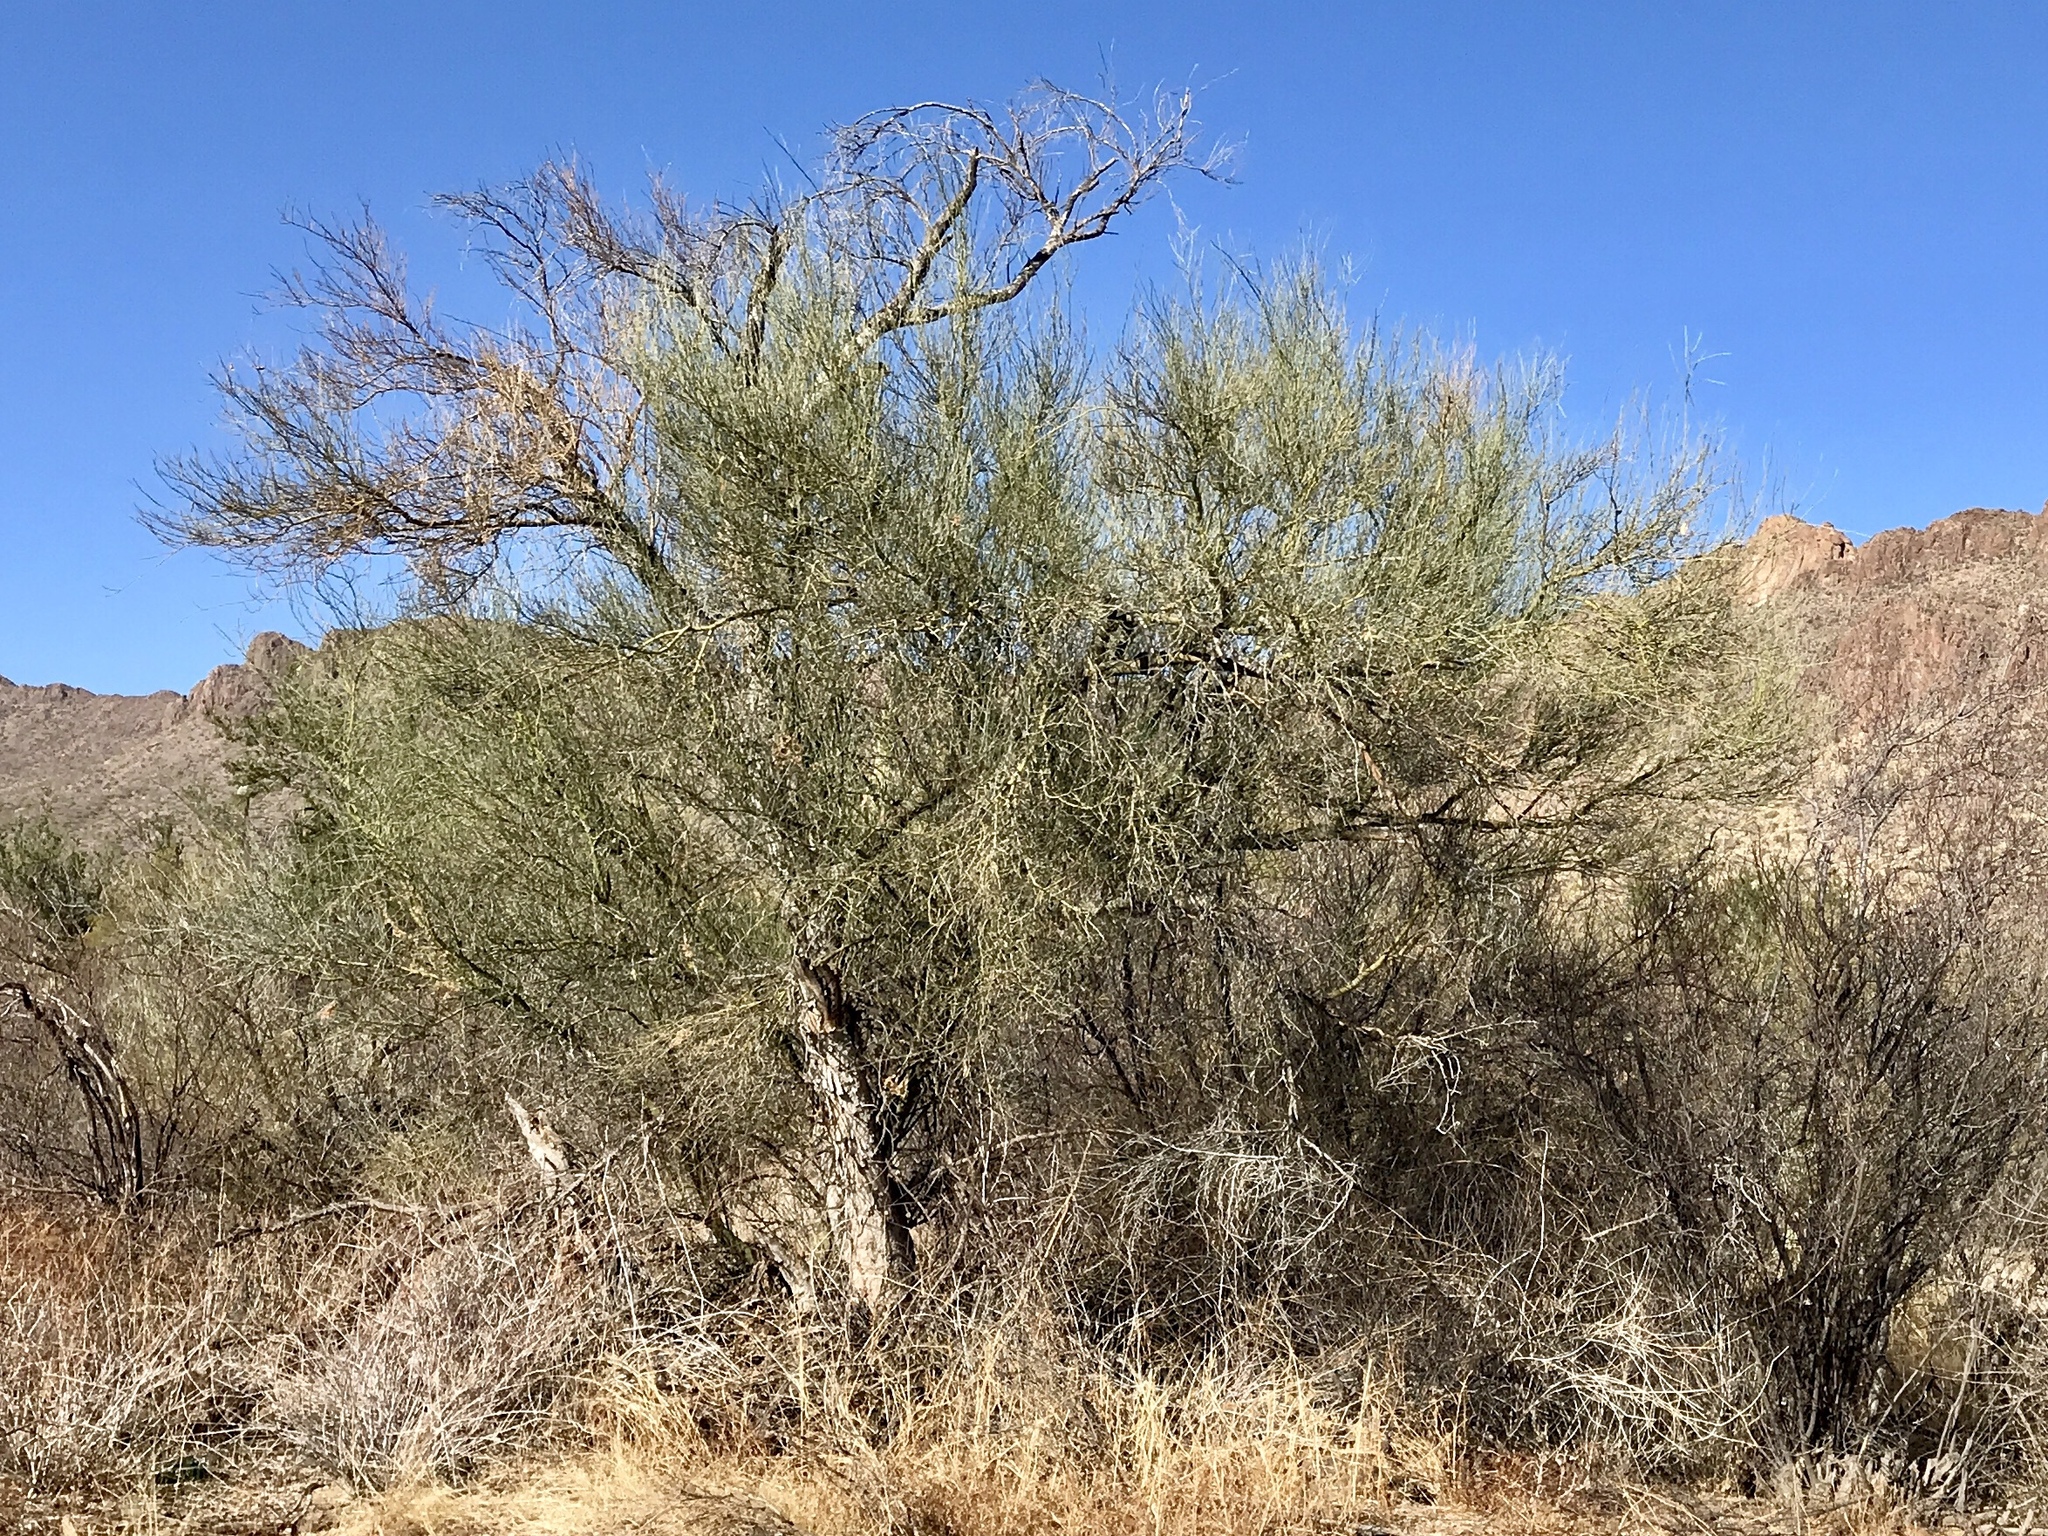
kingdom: Plantae
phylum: Tracheophyta
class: Magnoliopsida
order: Fabales
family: Fabaceae
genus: Parkinsonia
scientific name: Parkinsonia florida
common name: Blue paloverde
